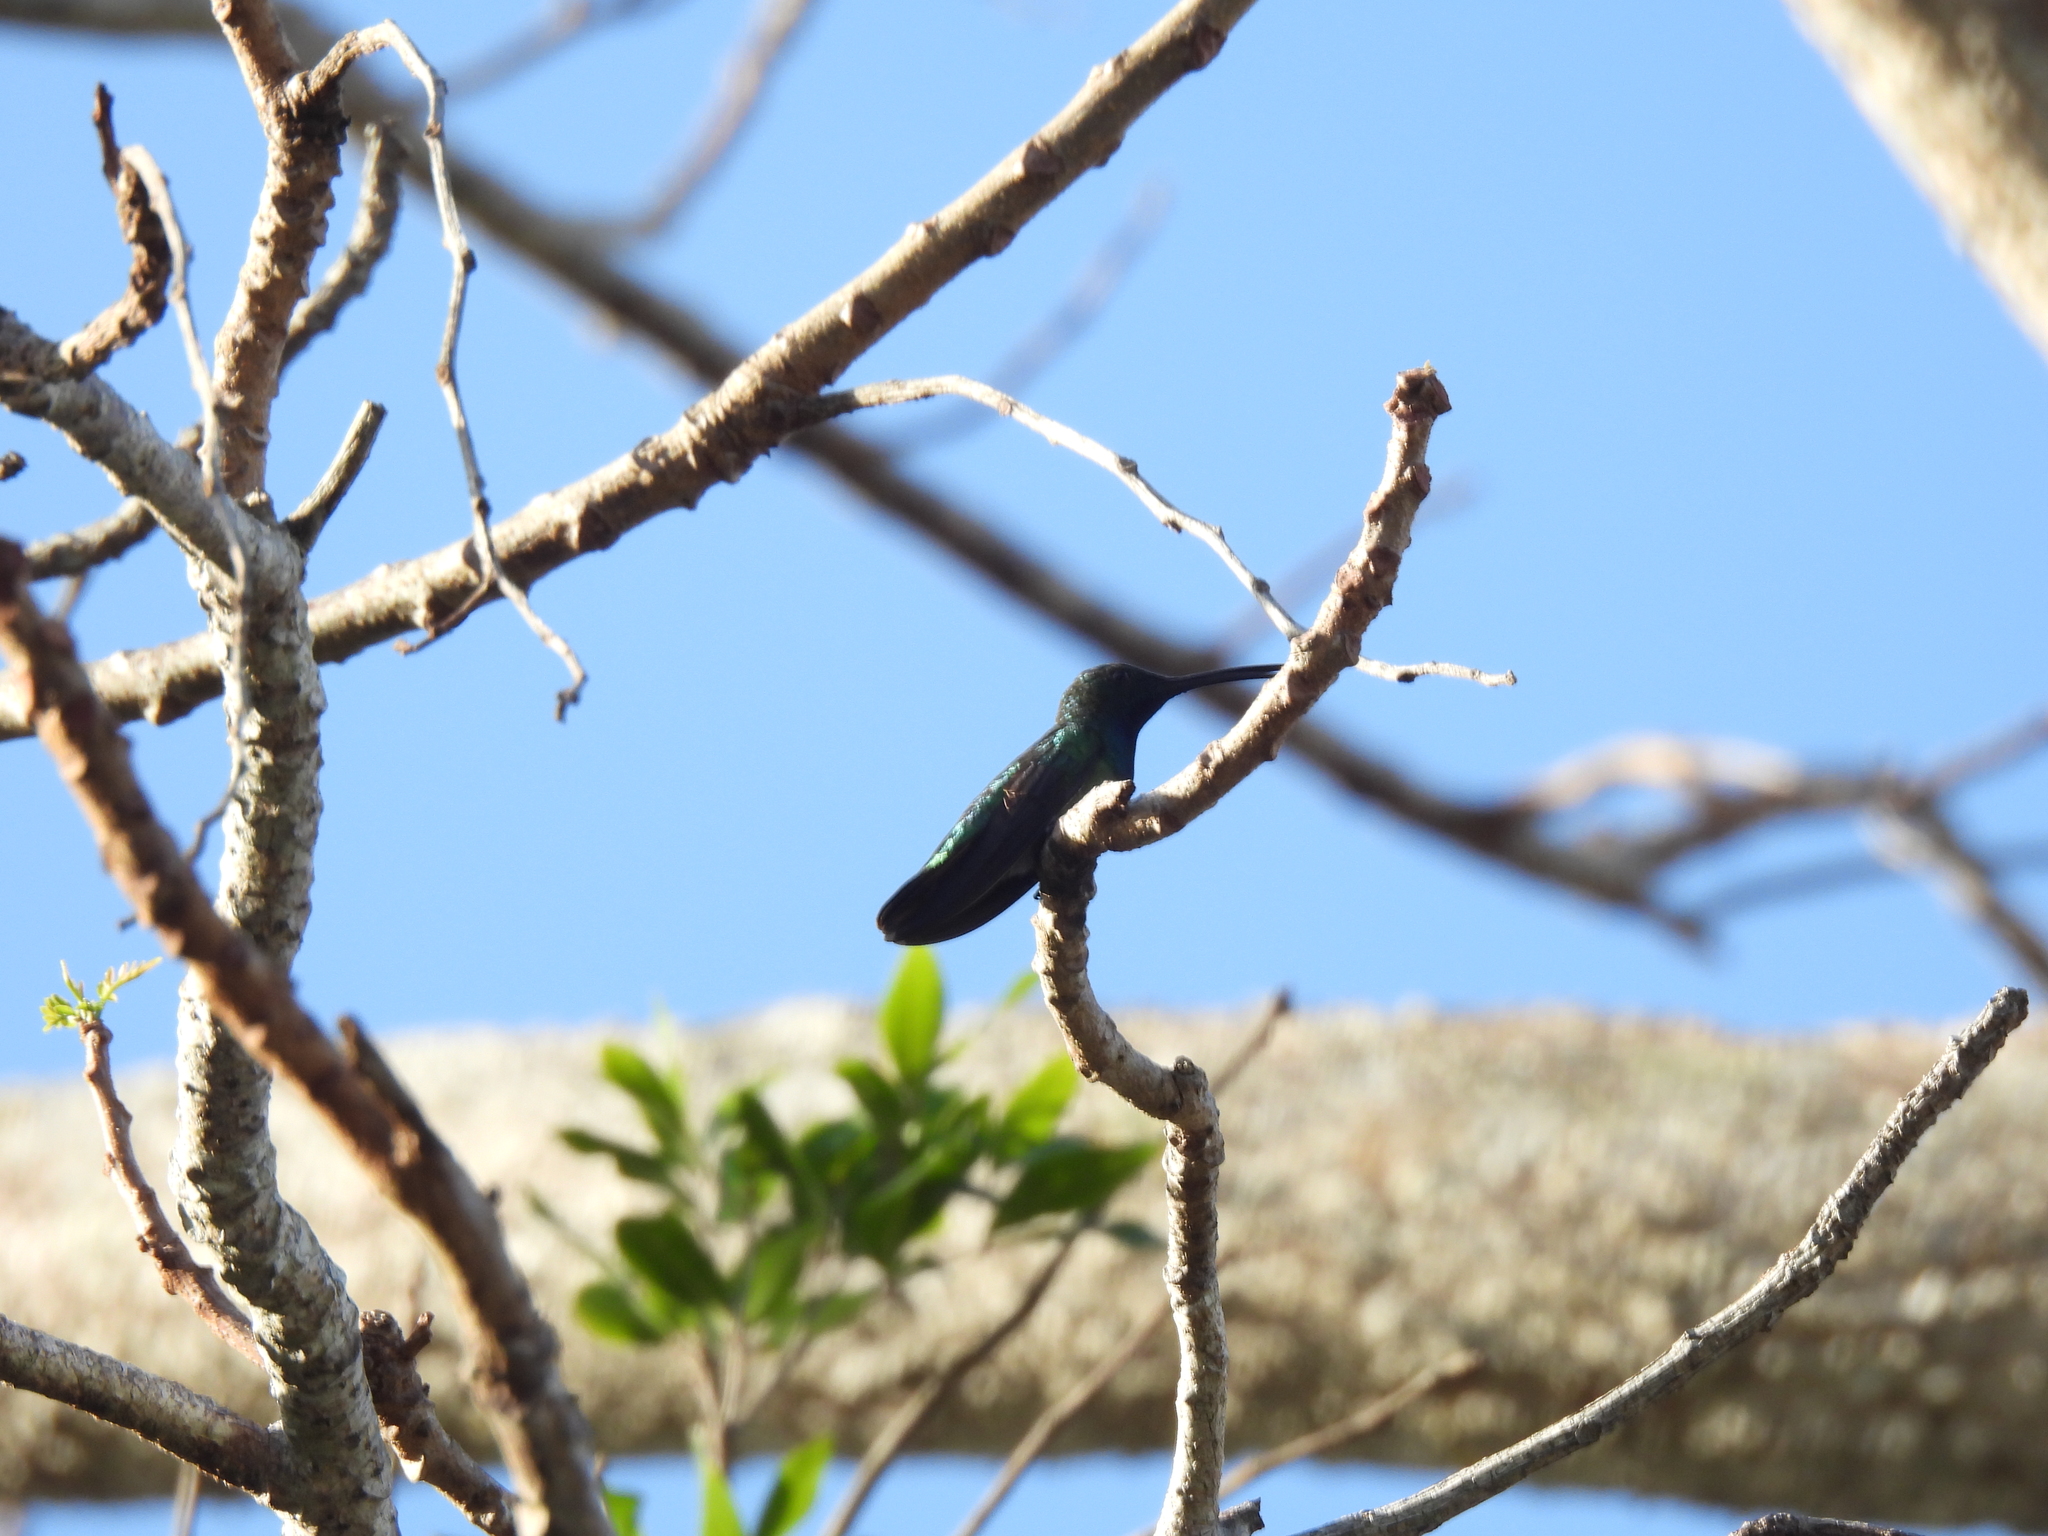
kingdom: Animalia
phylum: Chordata
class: Aves
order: Apodiformes
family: Trochilidae
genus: Anthracothorax
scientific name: Anthracothorax prevostii
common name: Green-breasted mango
